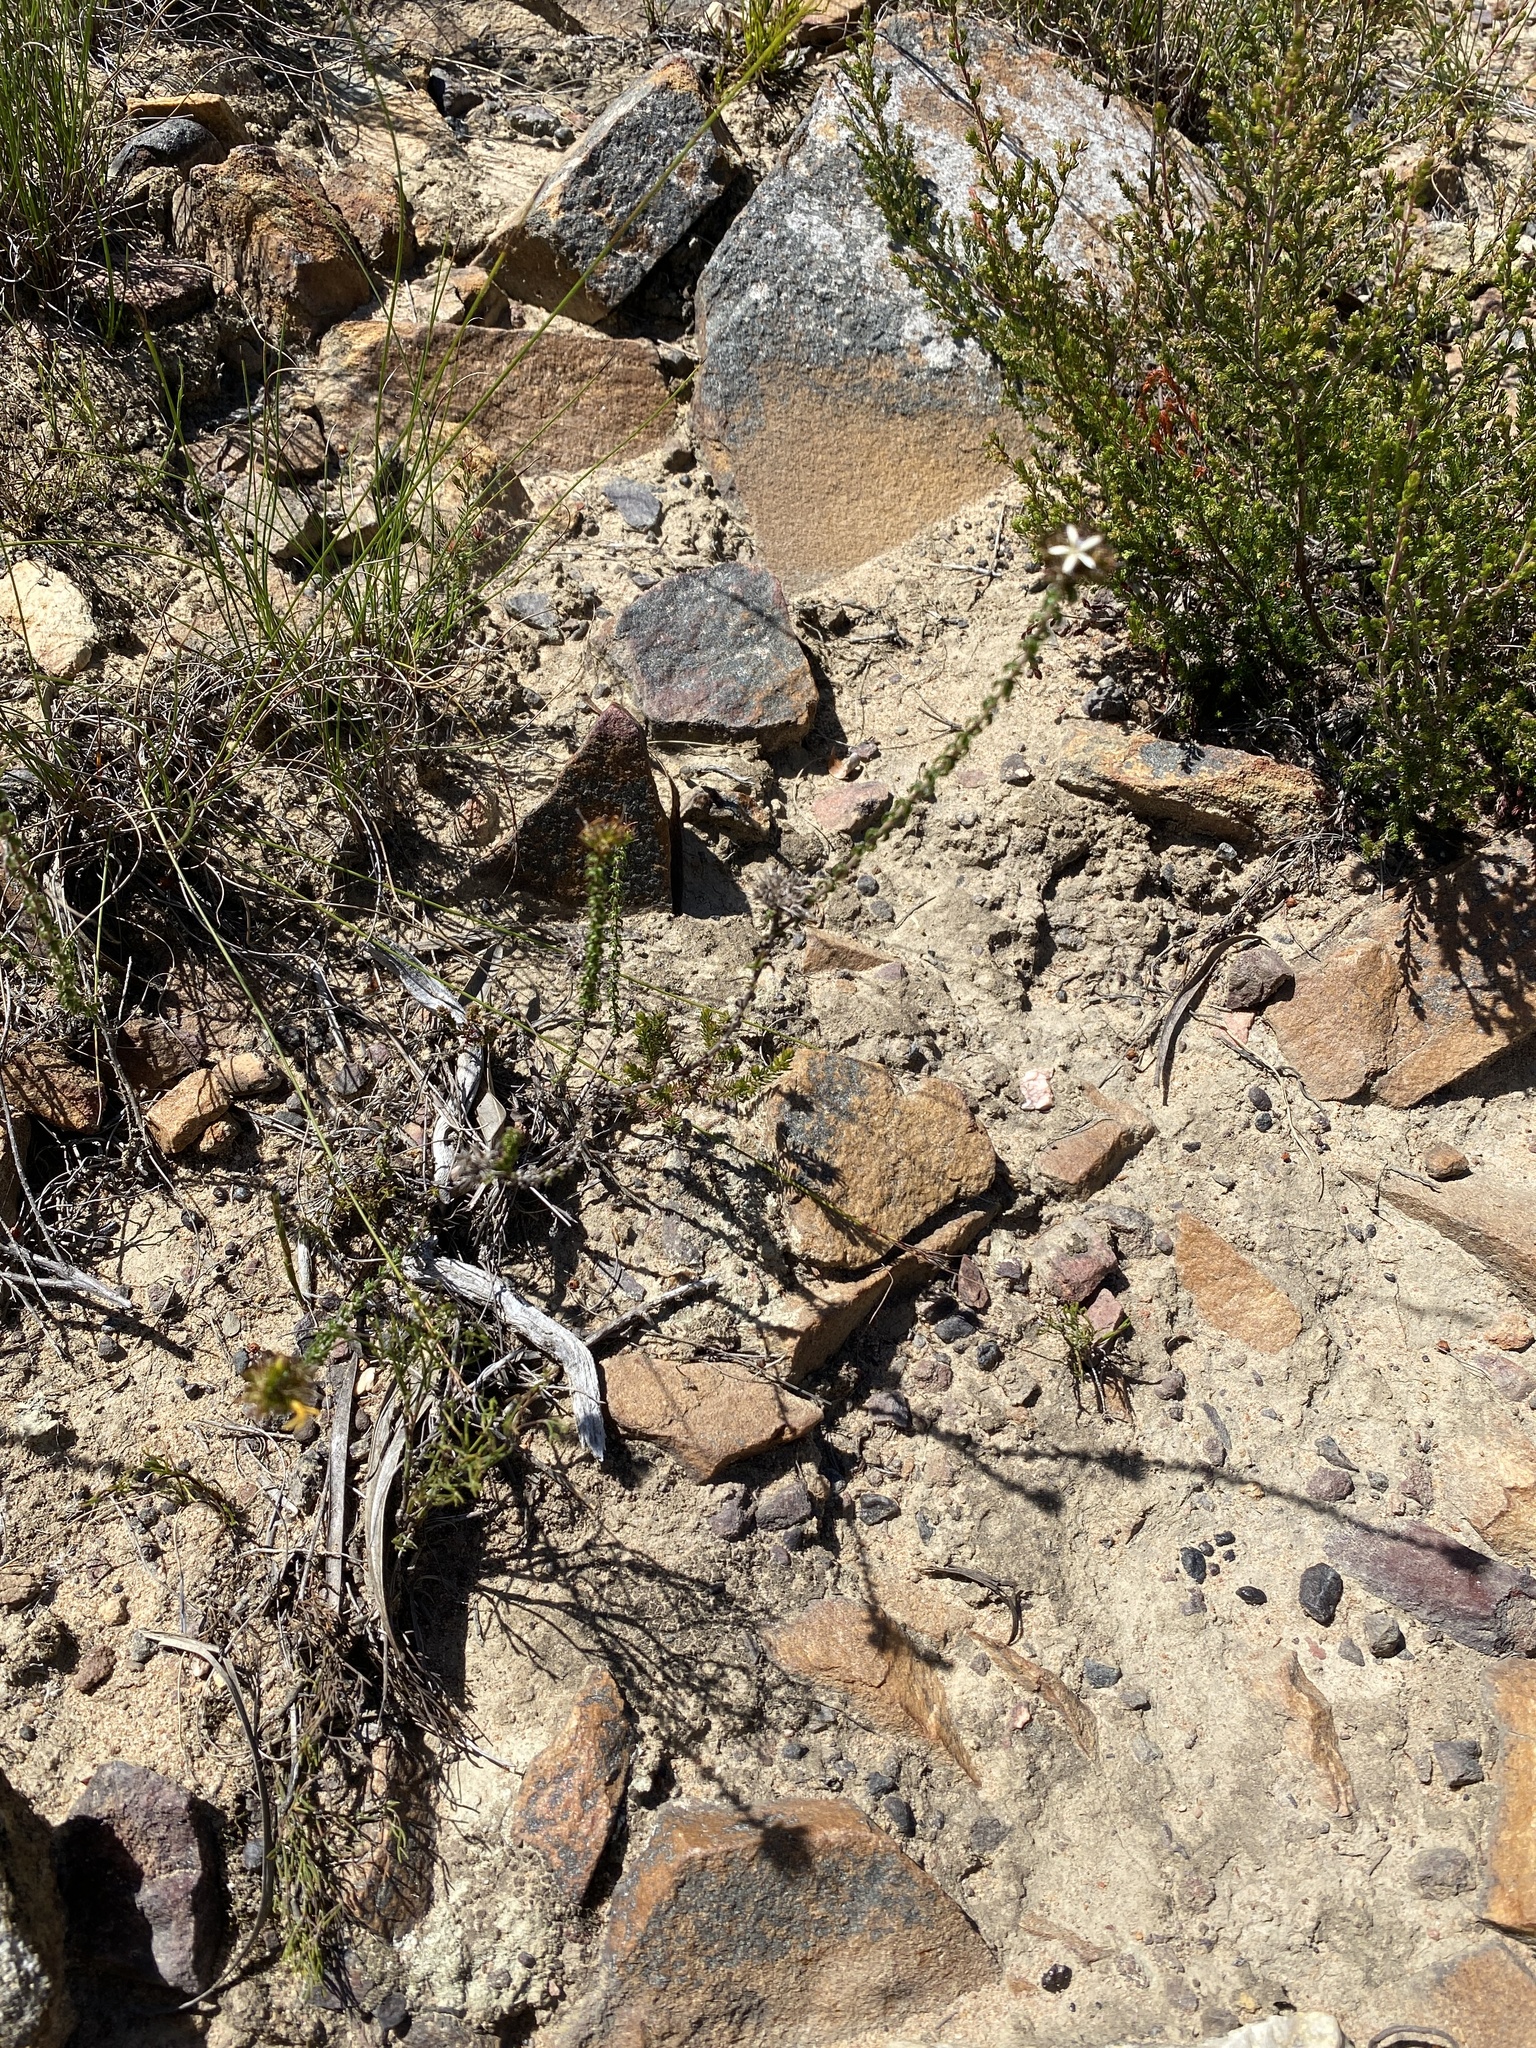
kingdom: Plantae
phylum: Tracheophyta
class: Magnoliopsida
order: Asterales
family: Campanulaceae
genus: Wahlenbergia
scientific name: Wahlenbergia desmantha
